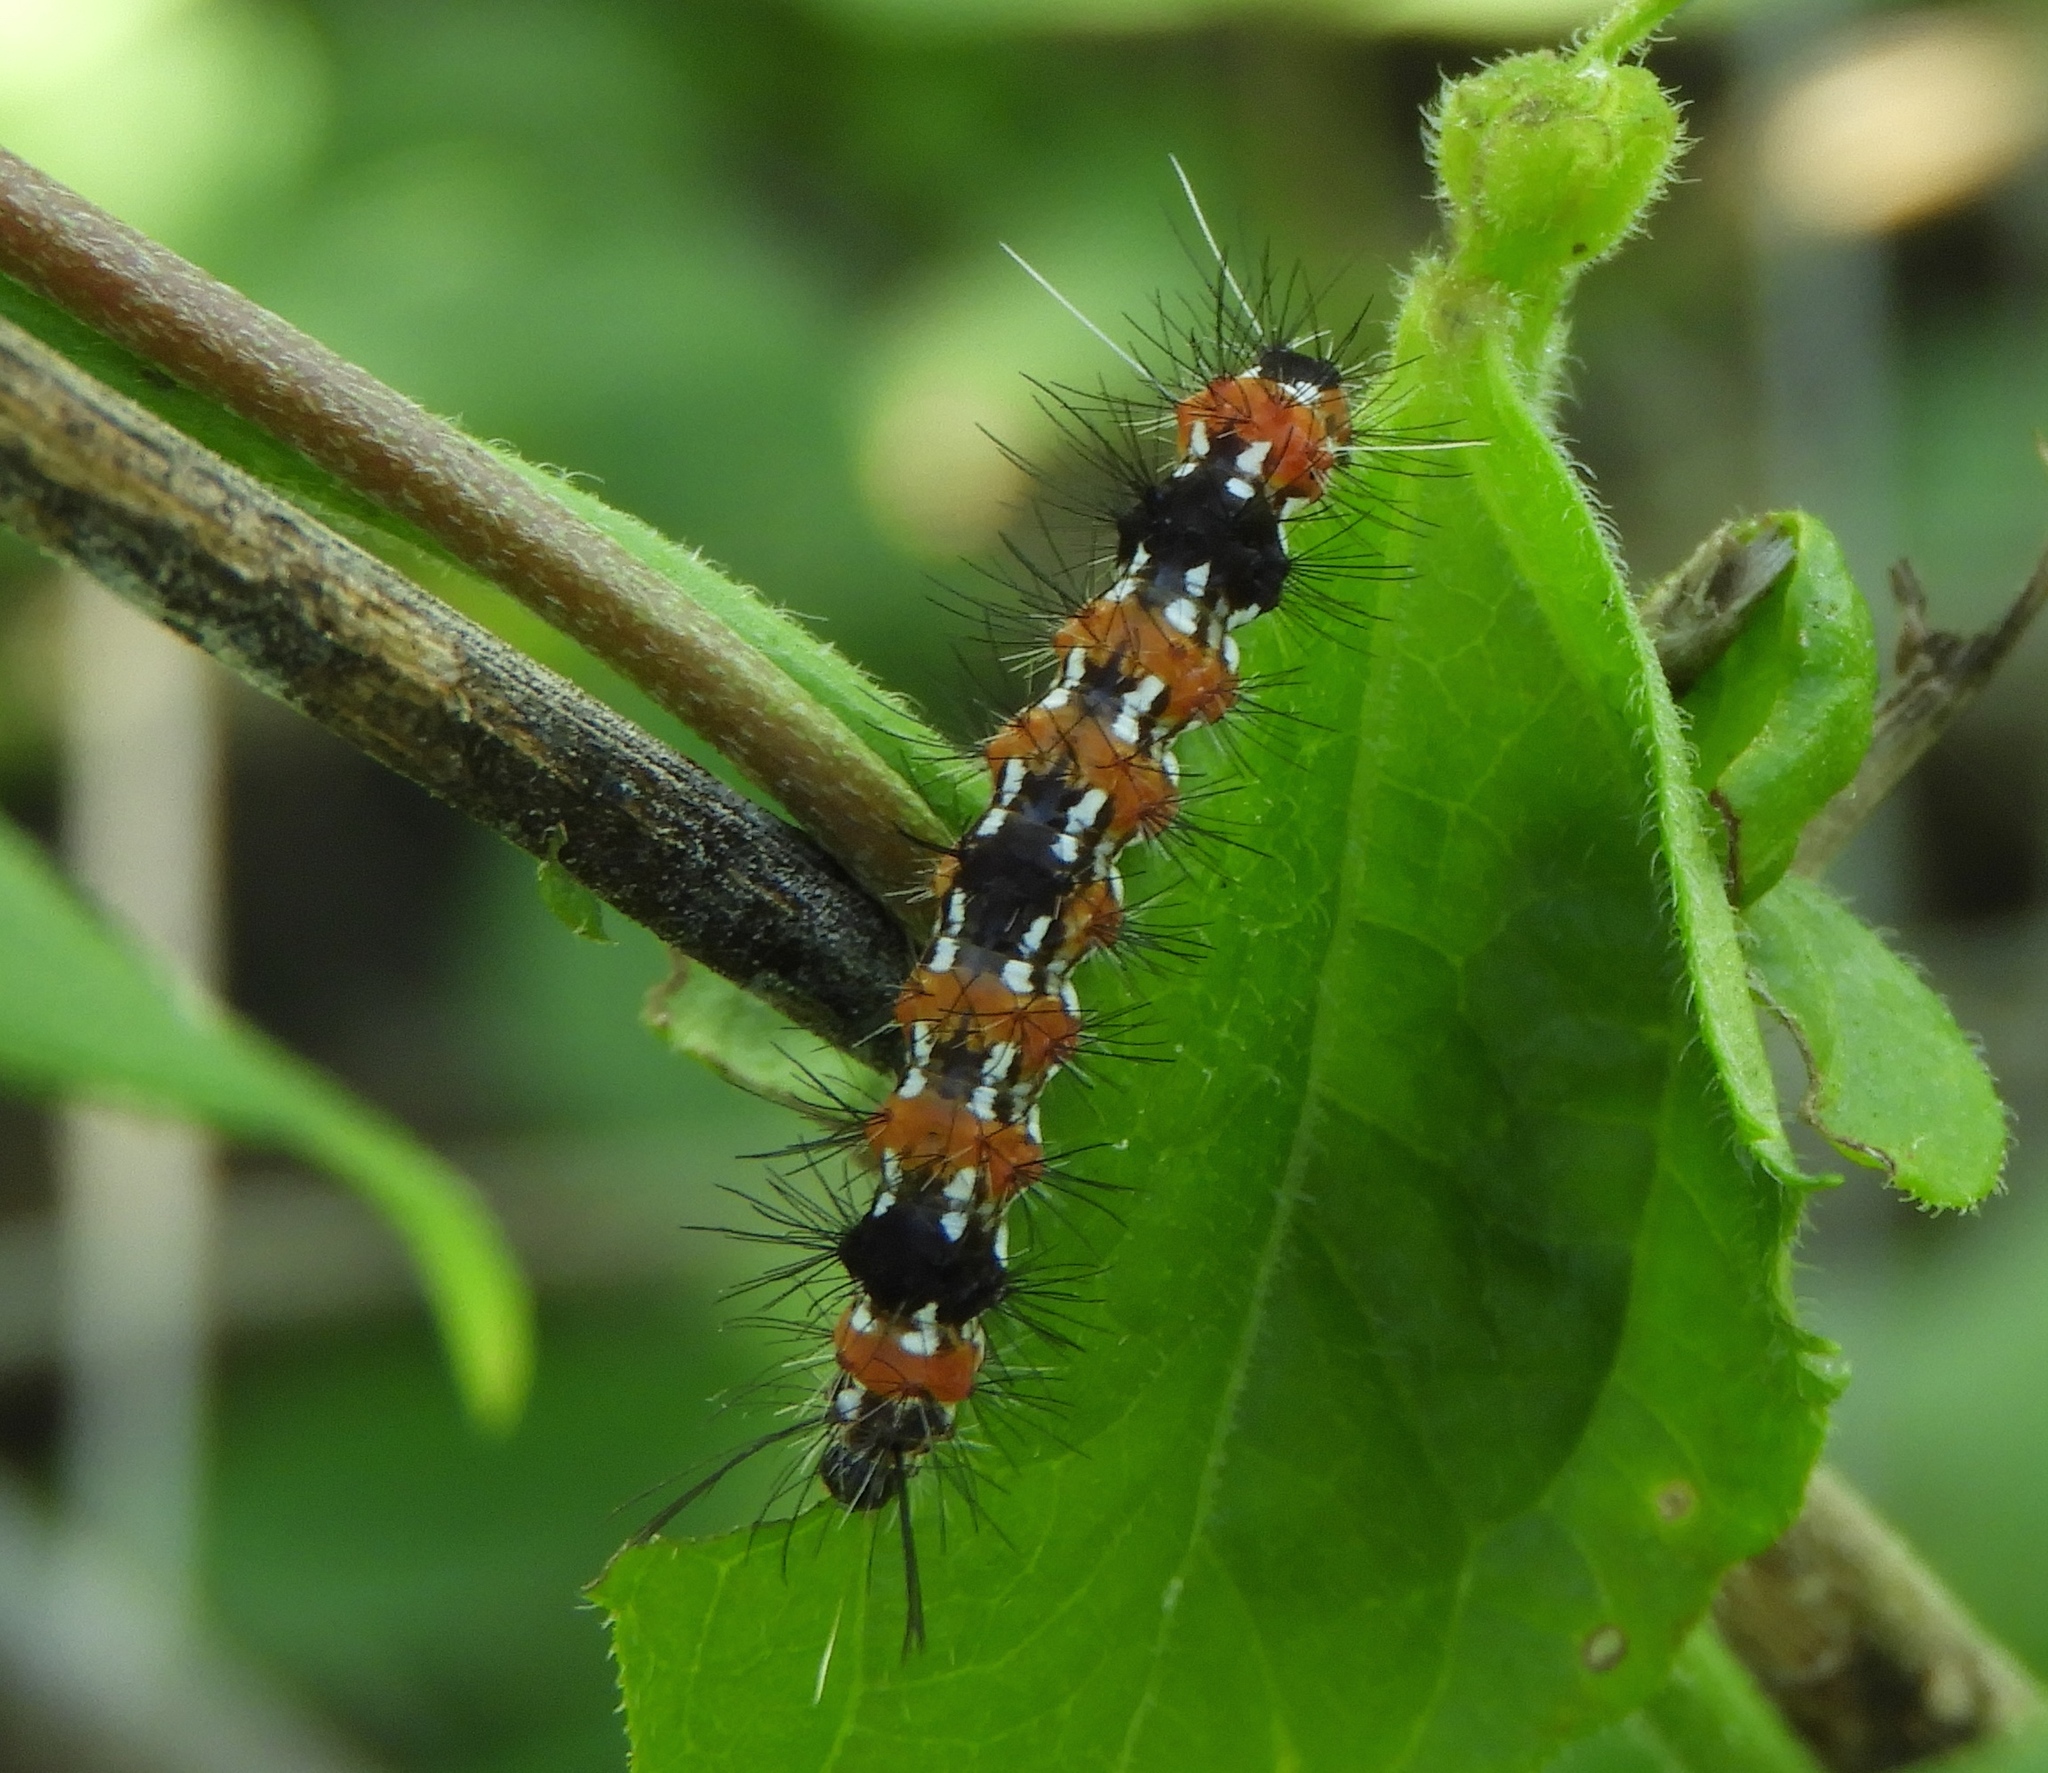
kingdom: Animalia
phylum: Arthropoda
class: Insecta
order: Lepidoptera
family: Erebidae
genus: Pareuchaetes
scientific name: Pareuchaetes insulata
